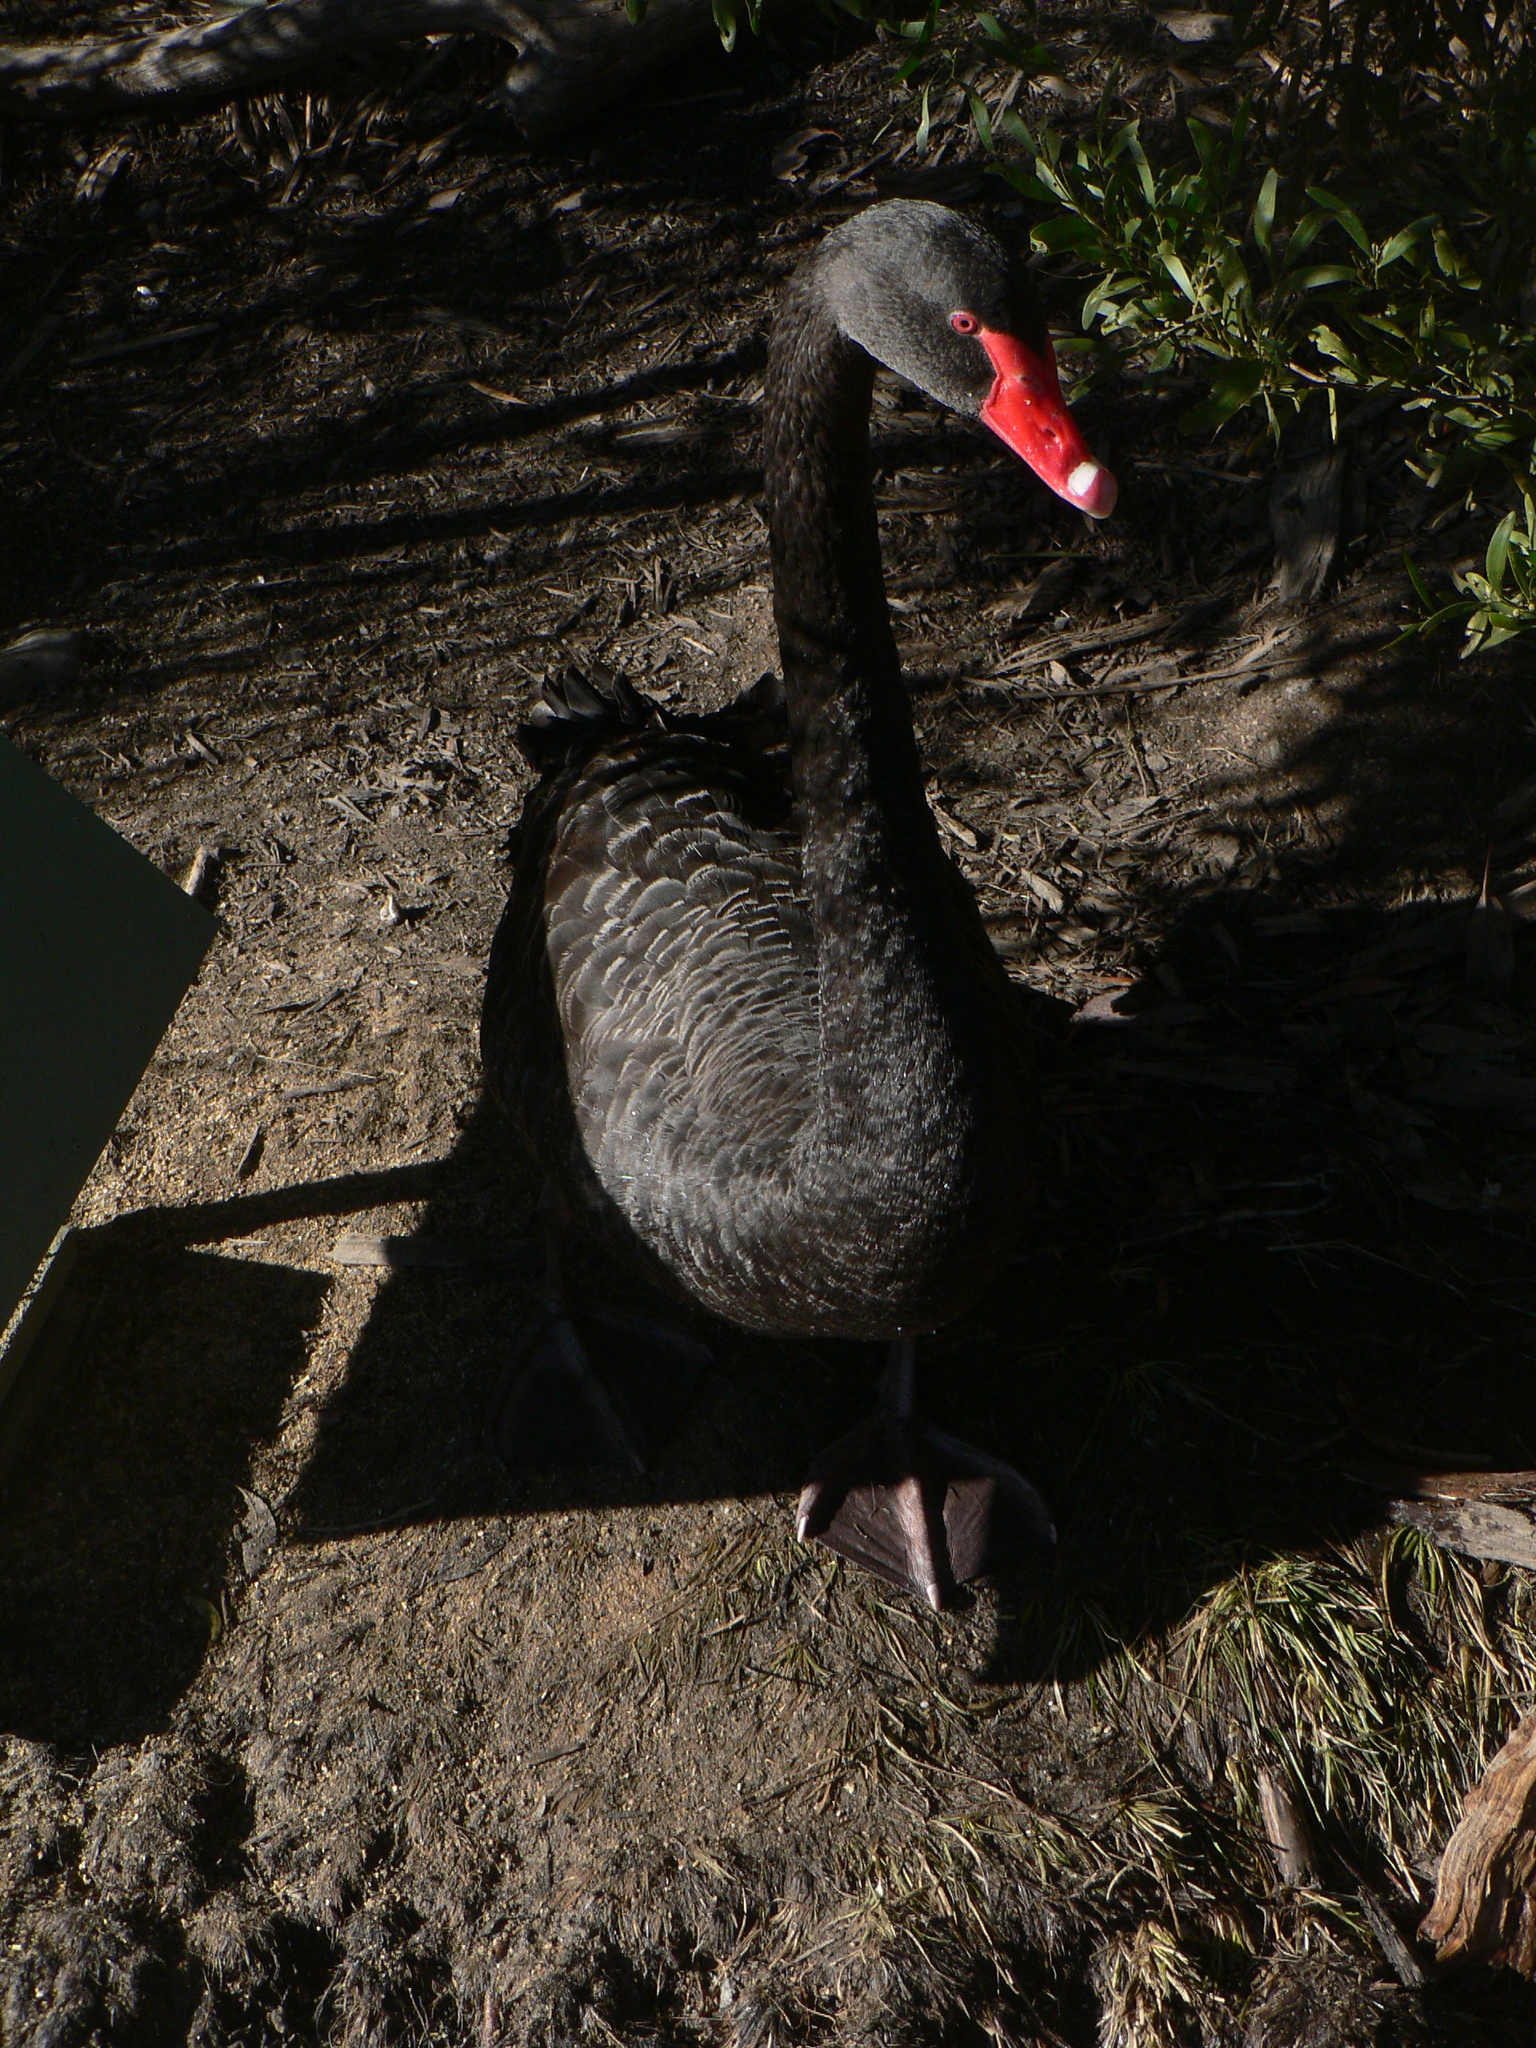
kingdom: Animalia
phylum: Chordata
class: Aves
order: Anseriformes
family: Anatidae
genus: Cygnus
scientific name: Cygnus atratus
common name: Black swan
